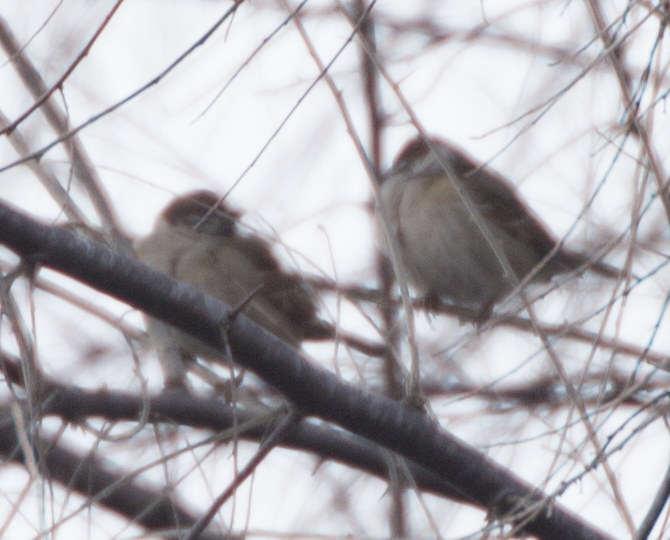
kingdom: Animalia
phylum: Chordata
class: Aves
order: Passeriformes
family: Passeridae
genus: Passer
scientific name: Passer montanus
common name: Eurasian tree sparrow
